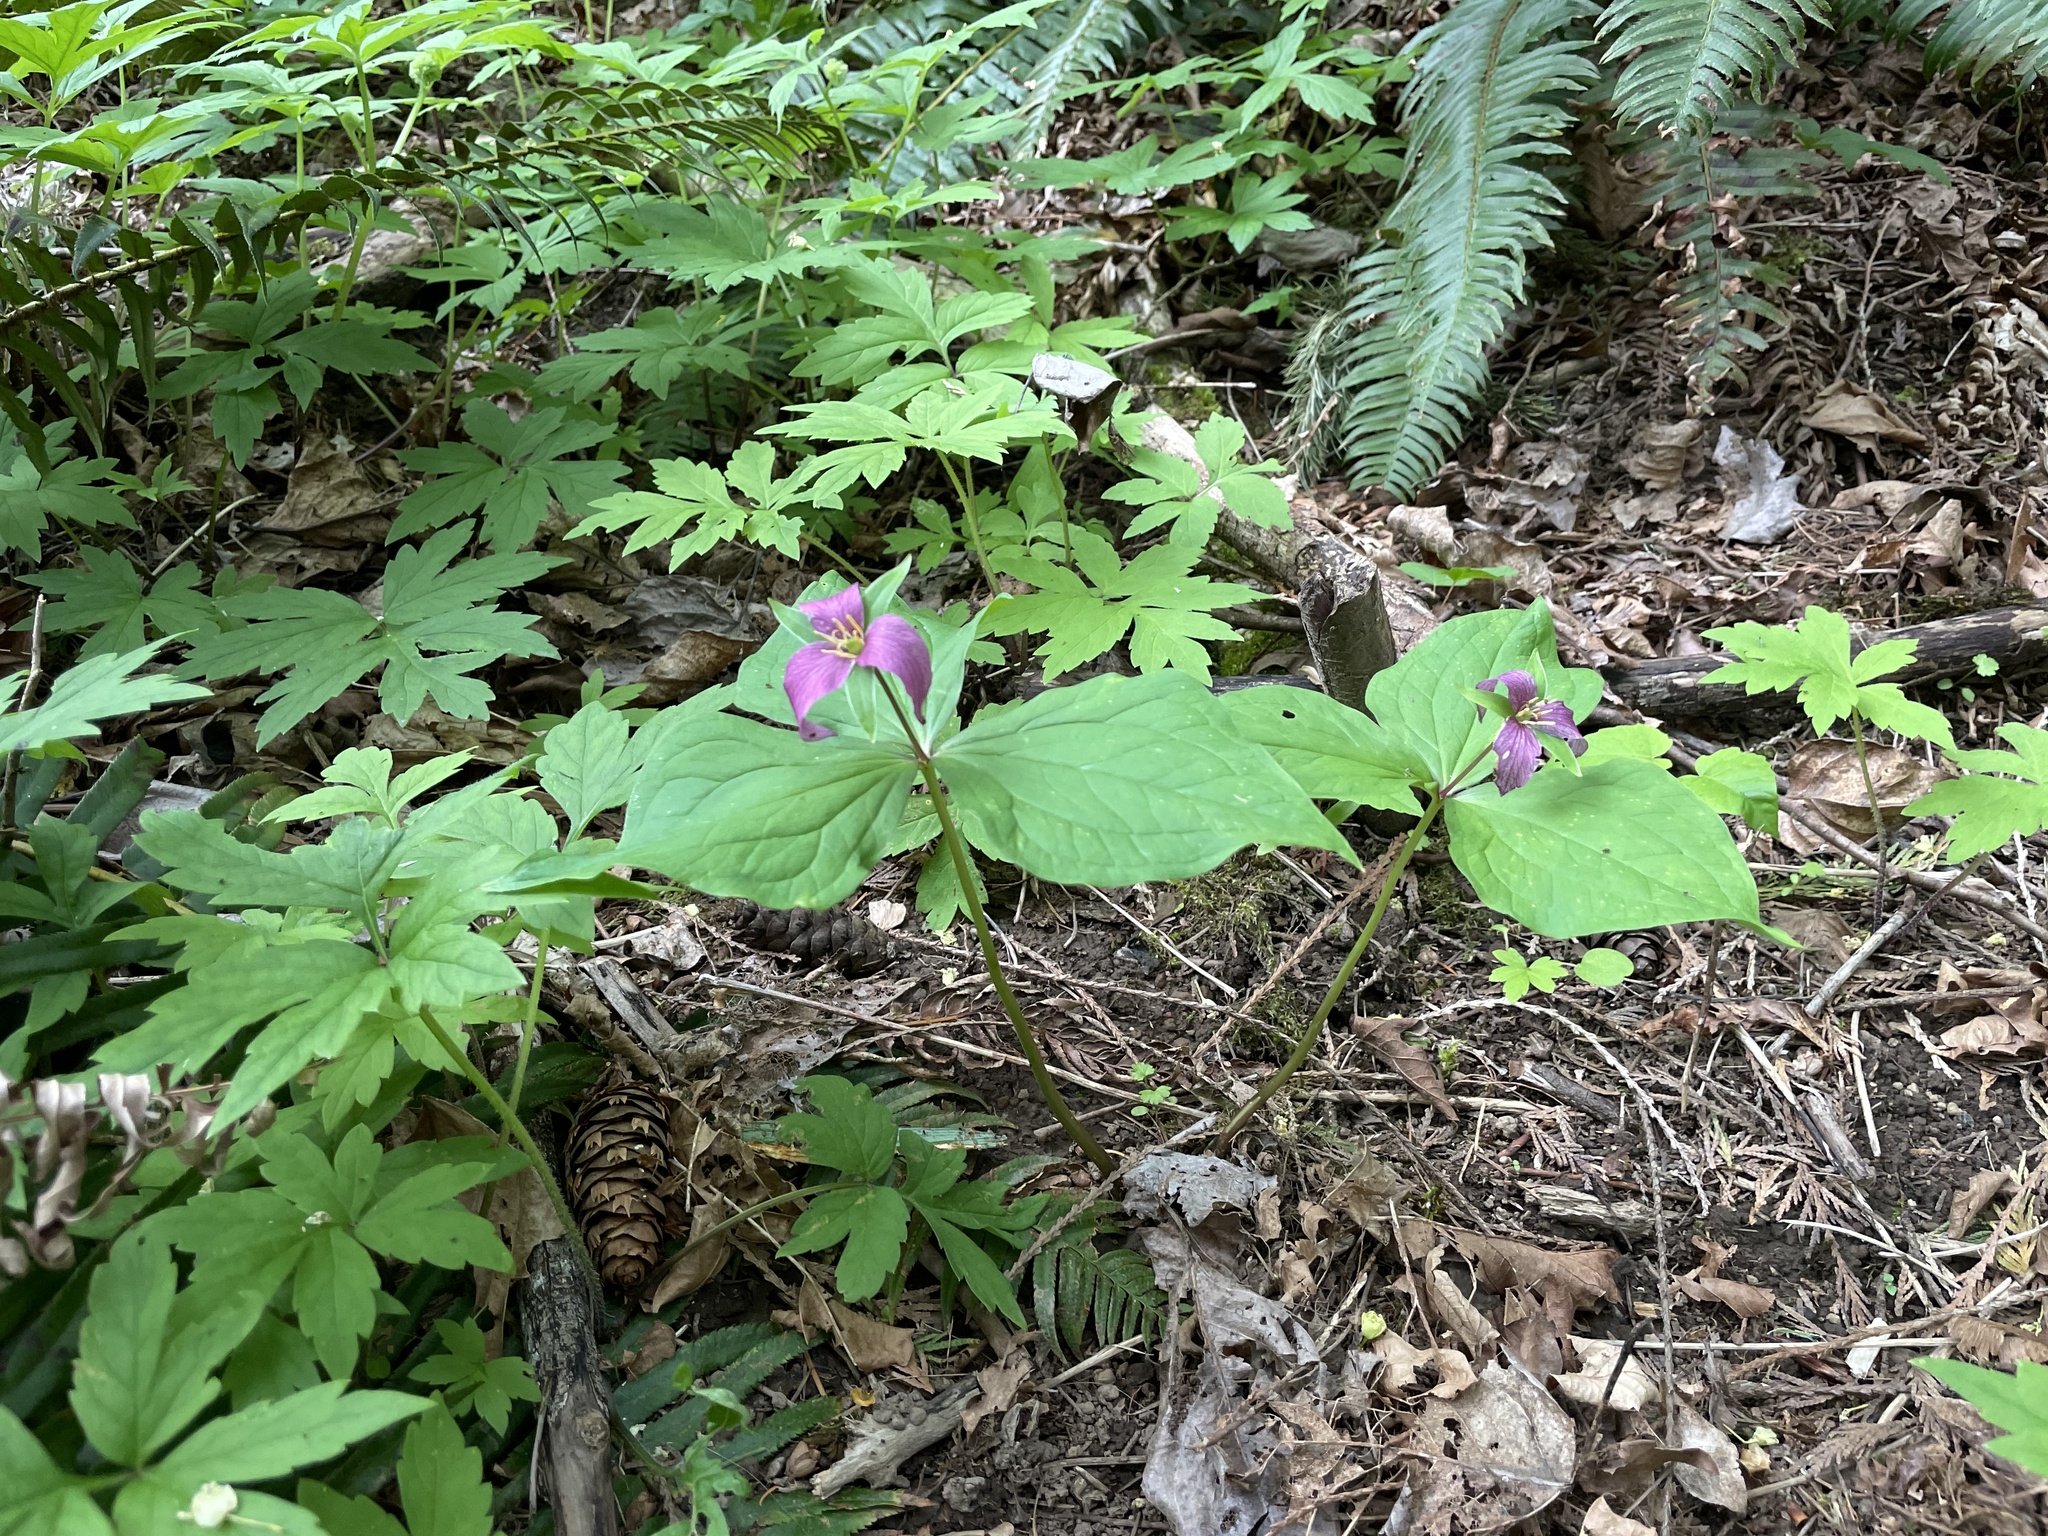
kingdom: Plantae
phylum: Tracheophyta
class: Liliopsida
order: Liliales
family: Melanthiaceae
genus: Trillium
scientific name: Trillium ovatum
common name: Pacific trillium
